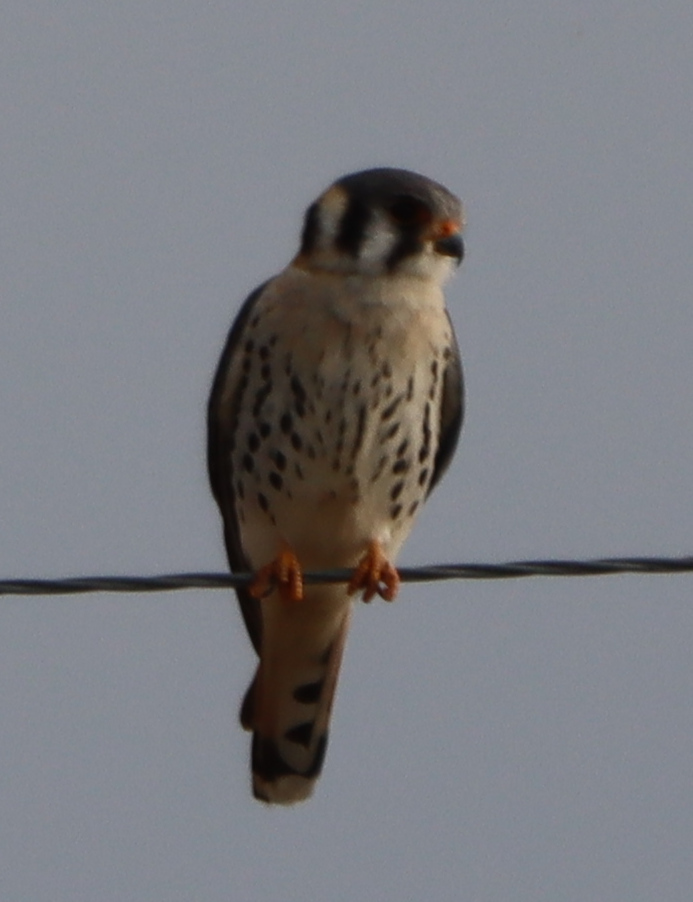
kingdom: Animalia
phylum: Chordata
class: Aves
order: Falconiformes
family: Falconidae
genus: Falco
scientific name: Falco sparverius
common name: American kestrel
